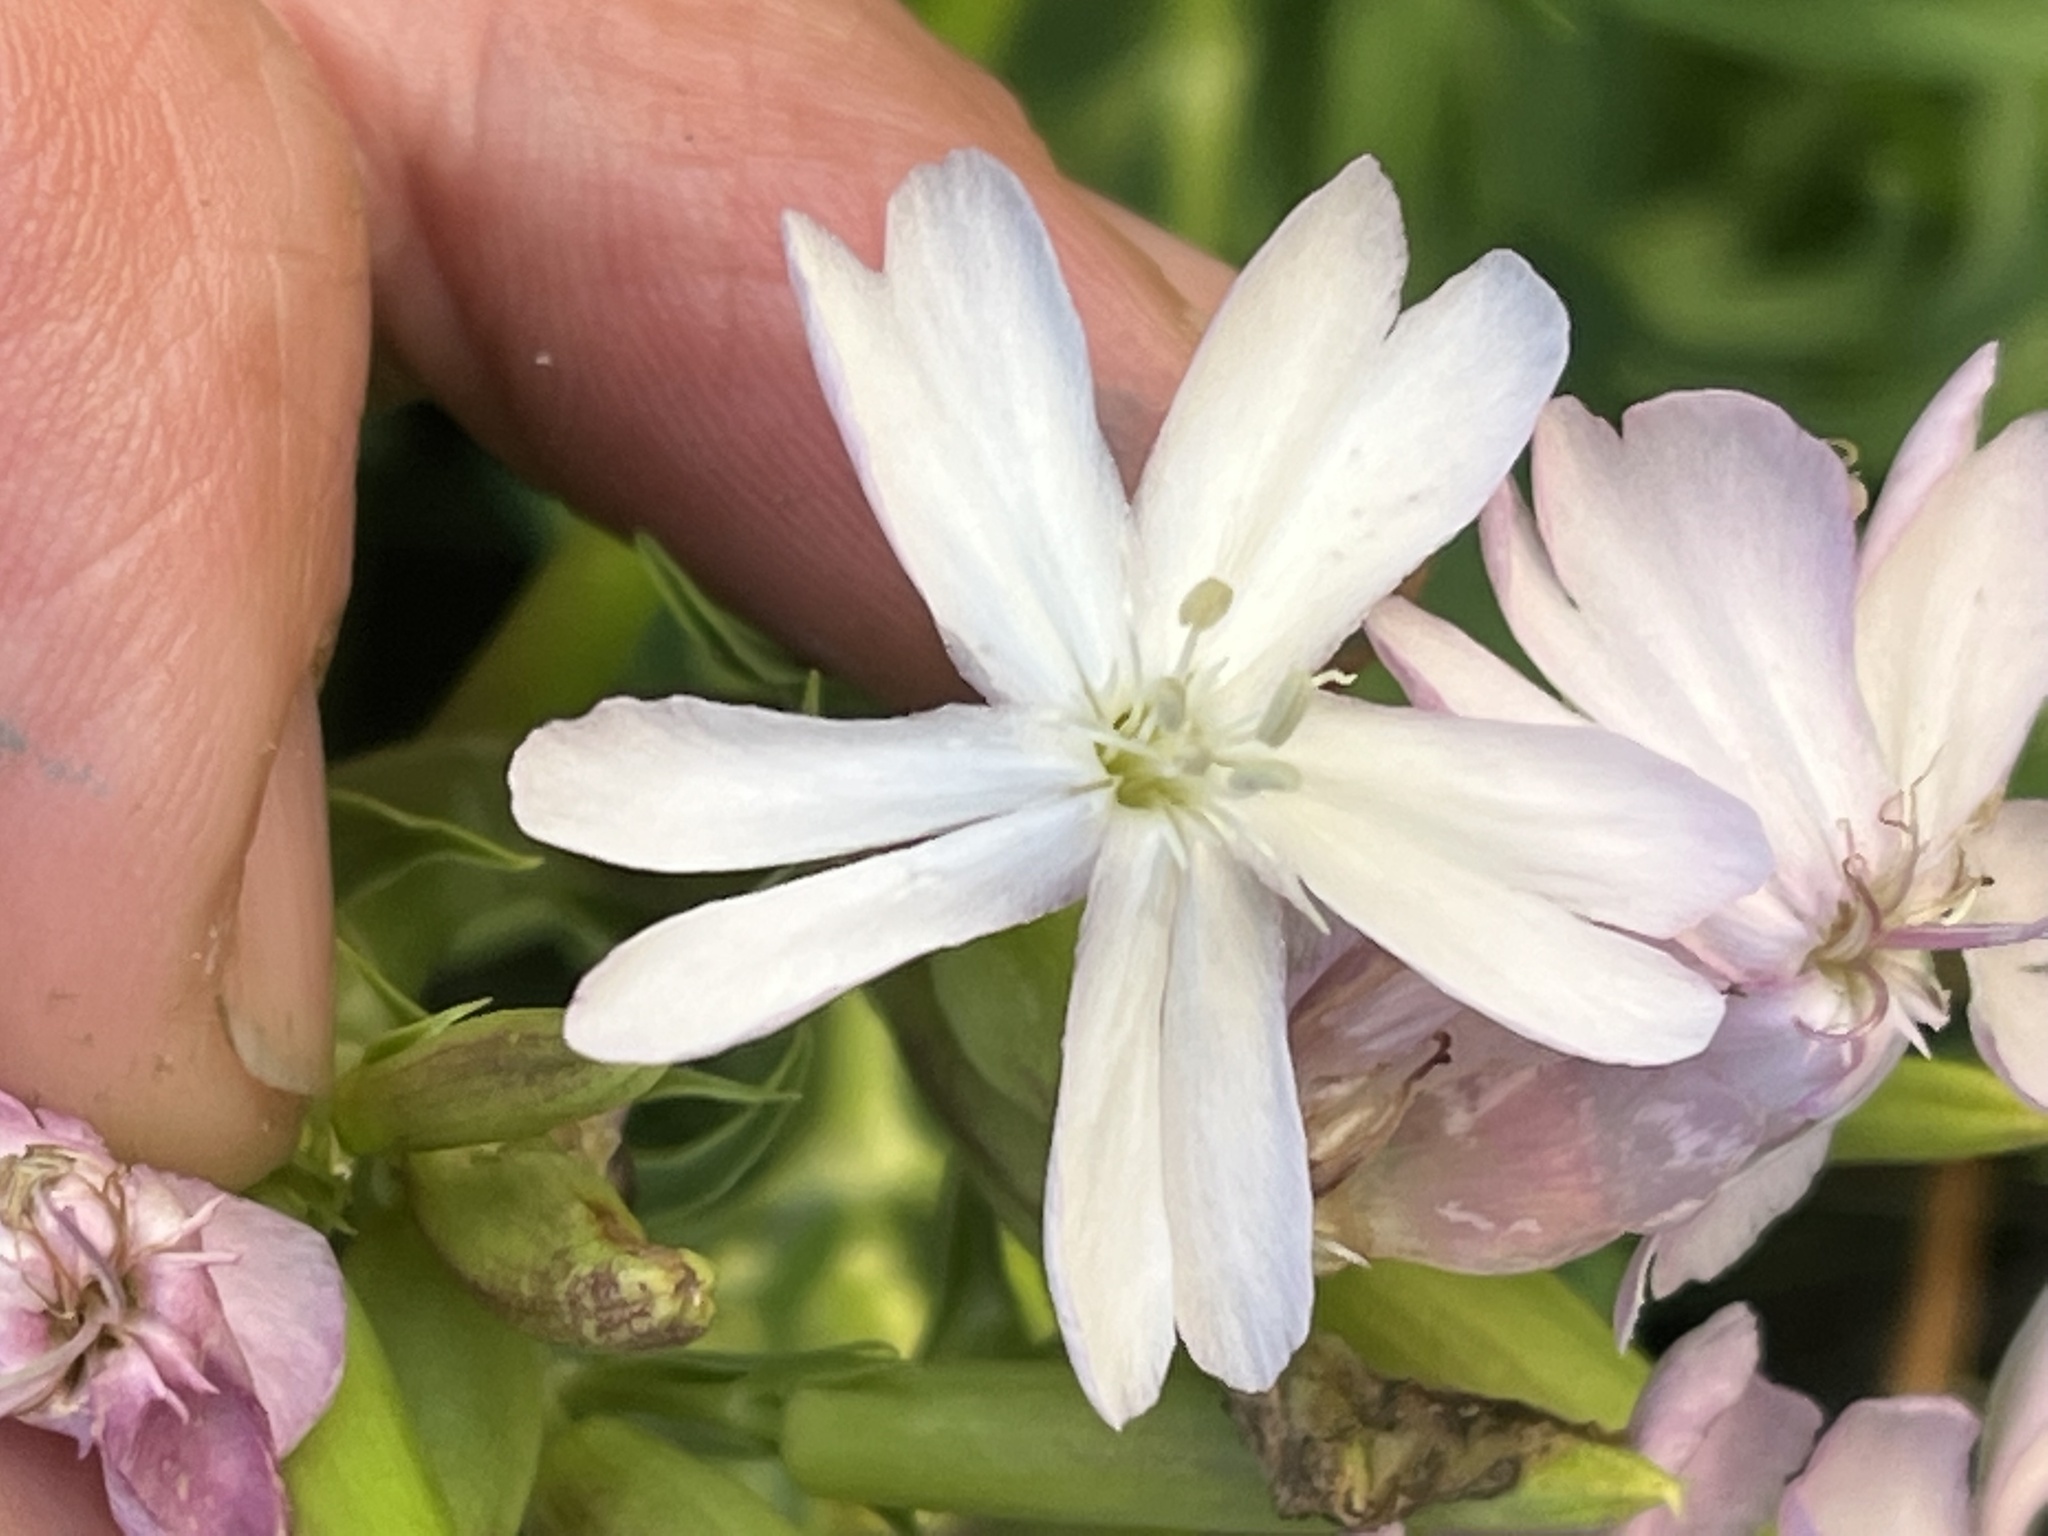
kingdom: Plantae
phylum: Tracheophyta
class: Magnoliopsida
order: Caryophyllales
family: Caryophyllaceae
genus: Saponaria
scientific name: Saponaria officinalis
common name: Soapwort
